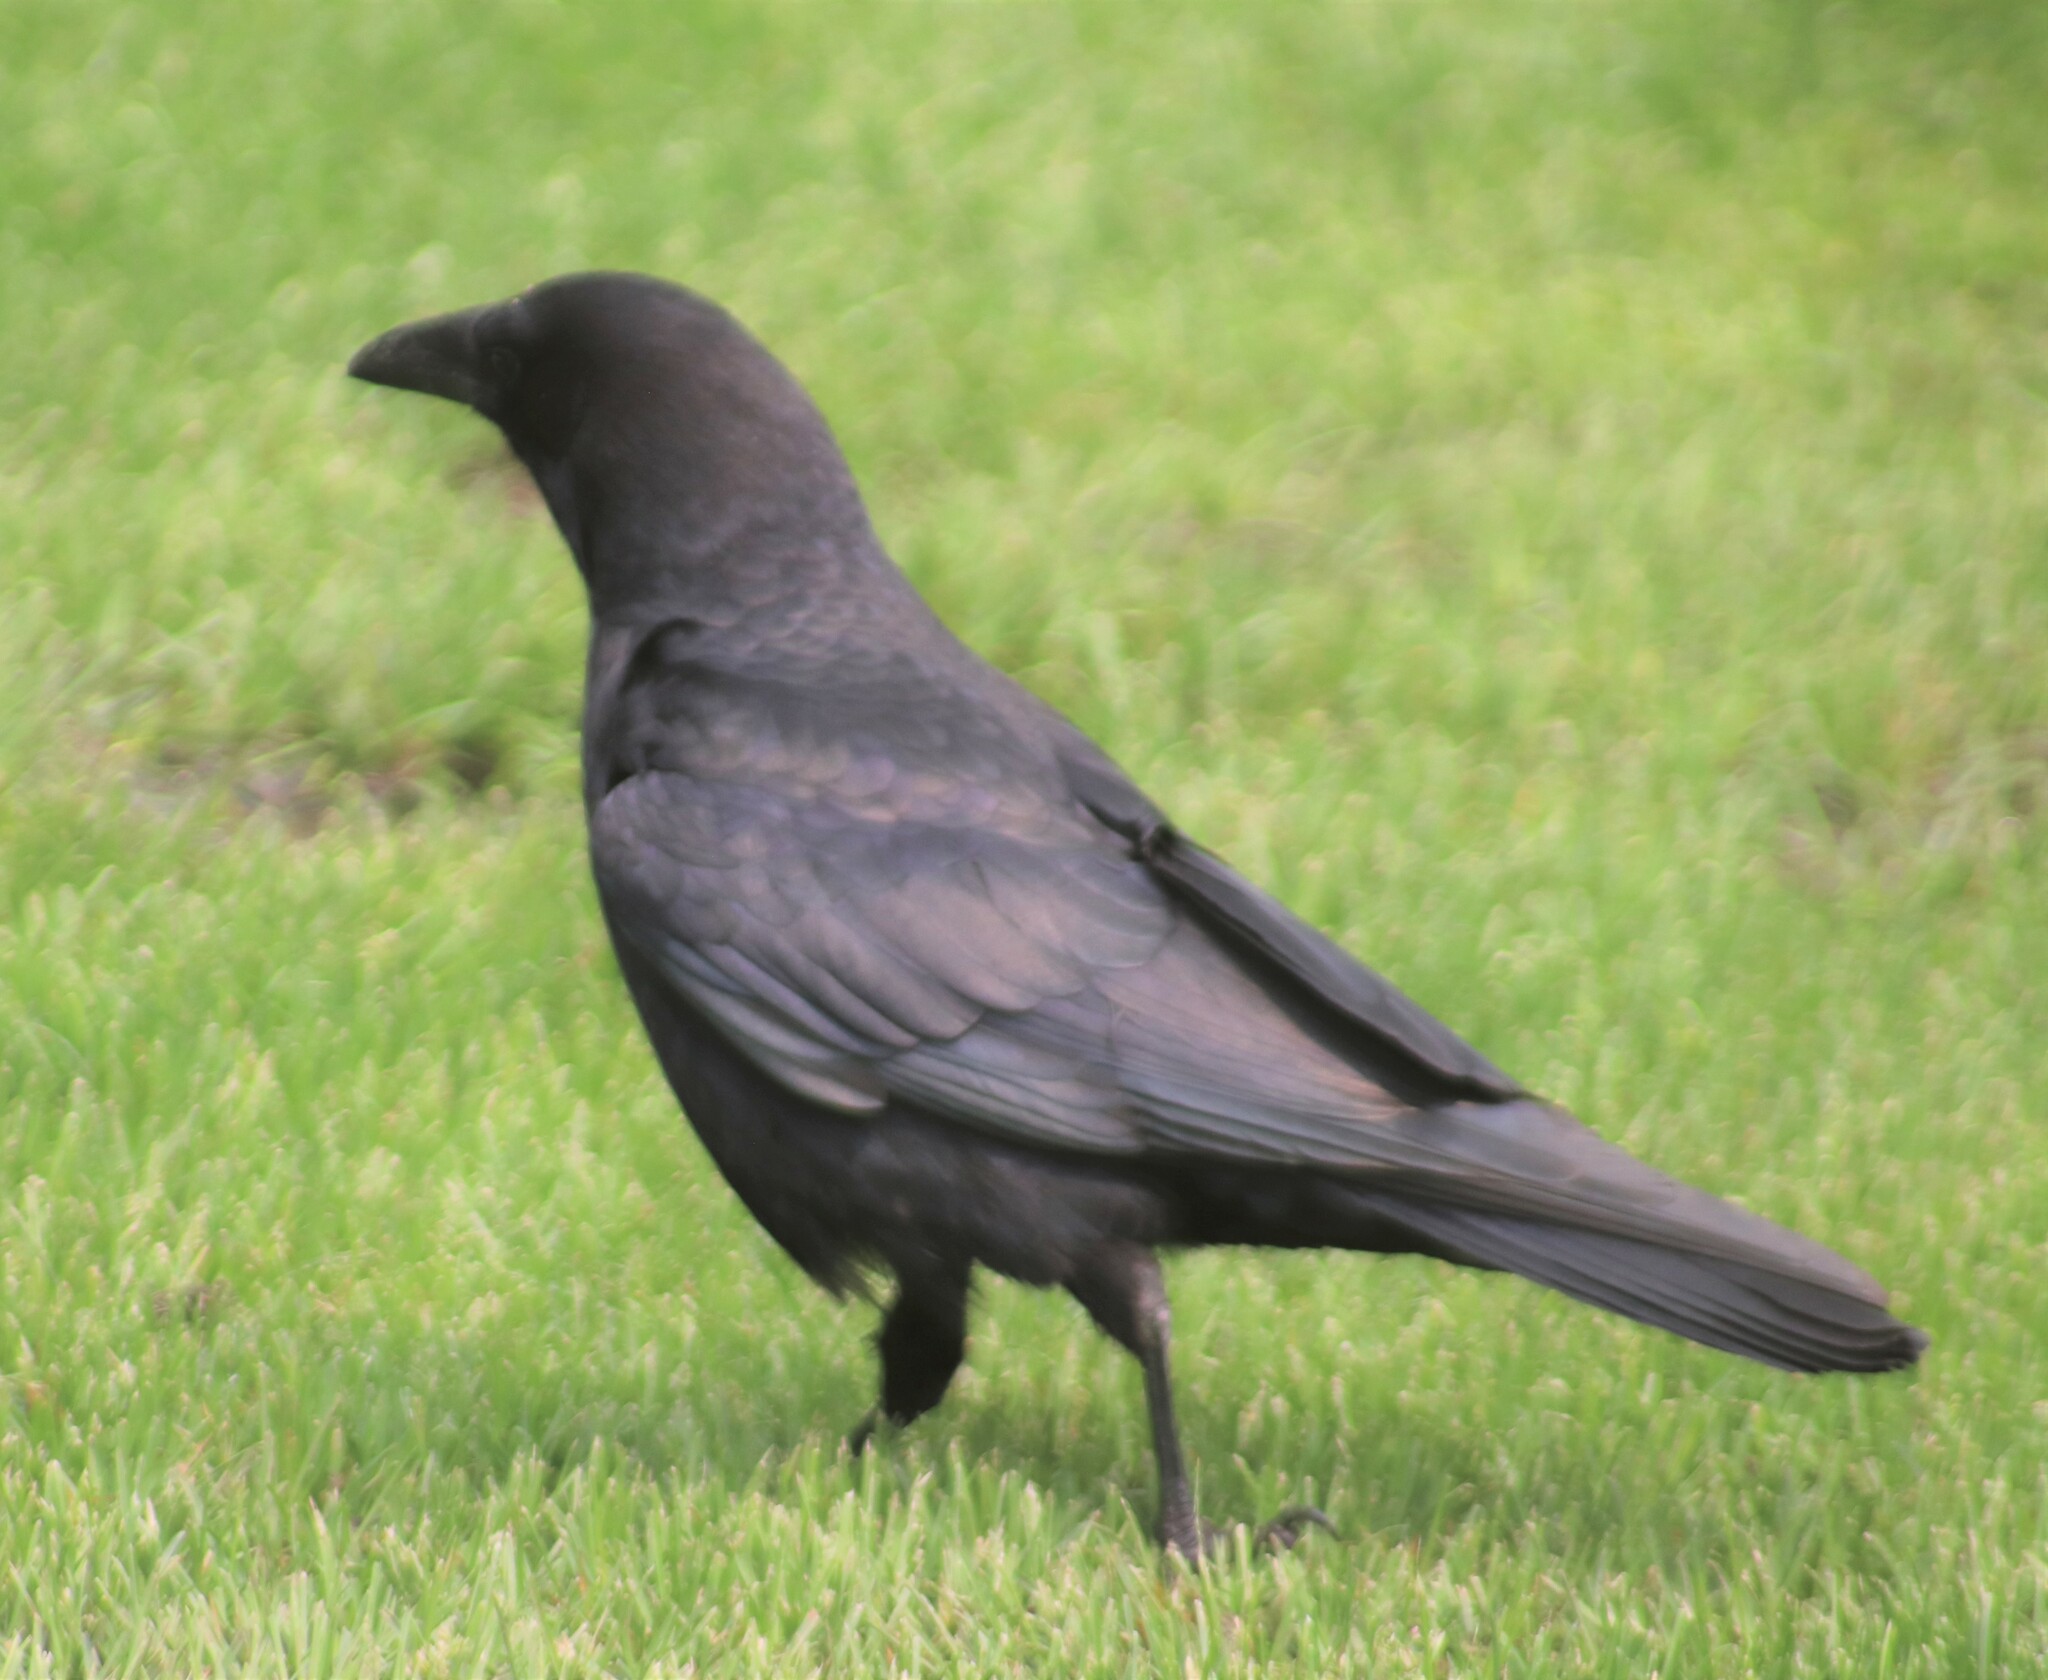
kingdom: Animalia
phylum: Chordata
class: Aves
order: Passeriformes
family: Corvidae
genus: Corvus
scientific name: Corvus brachyrhynchos
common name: American crow
